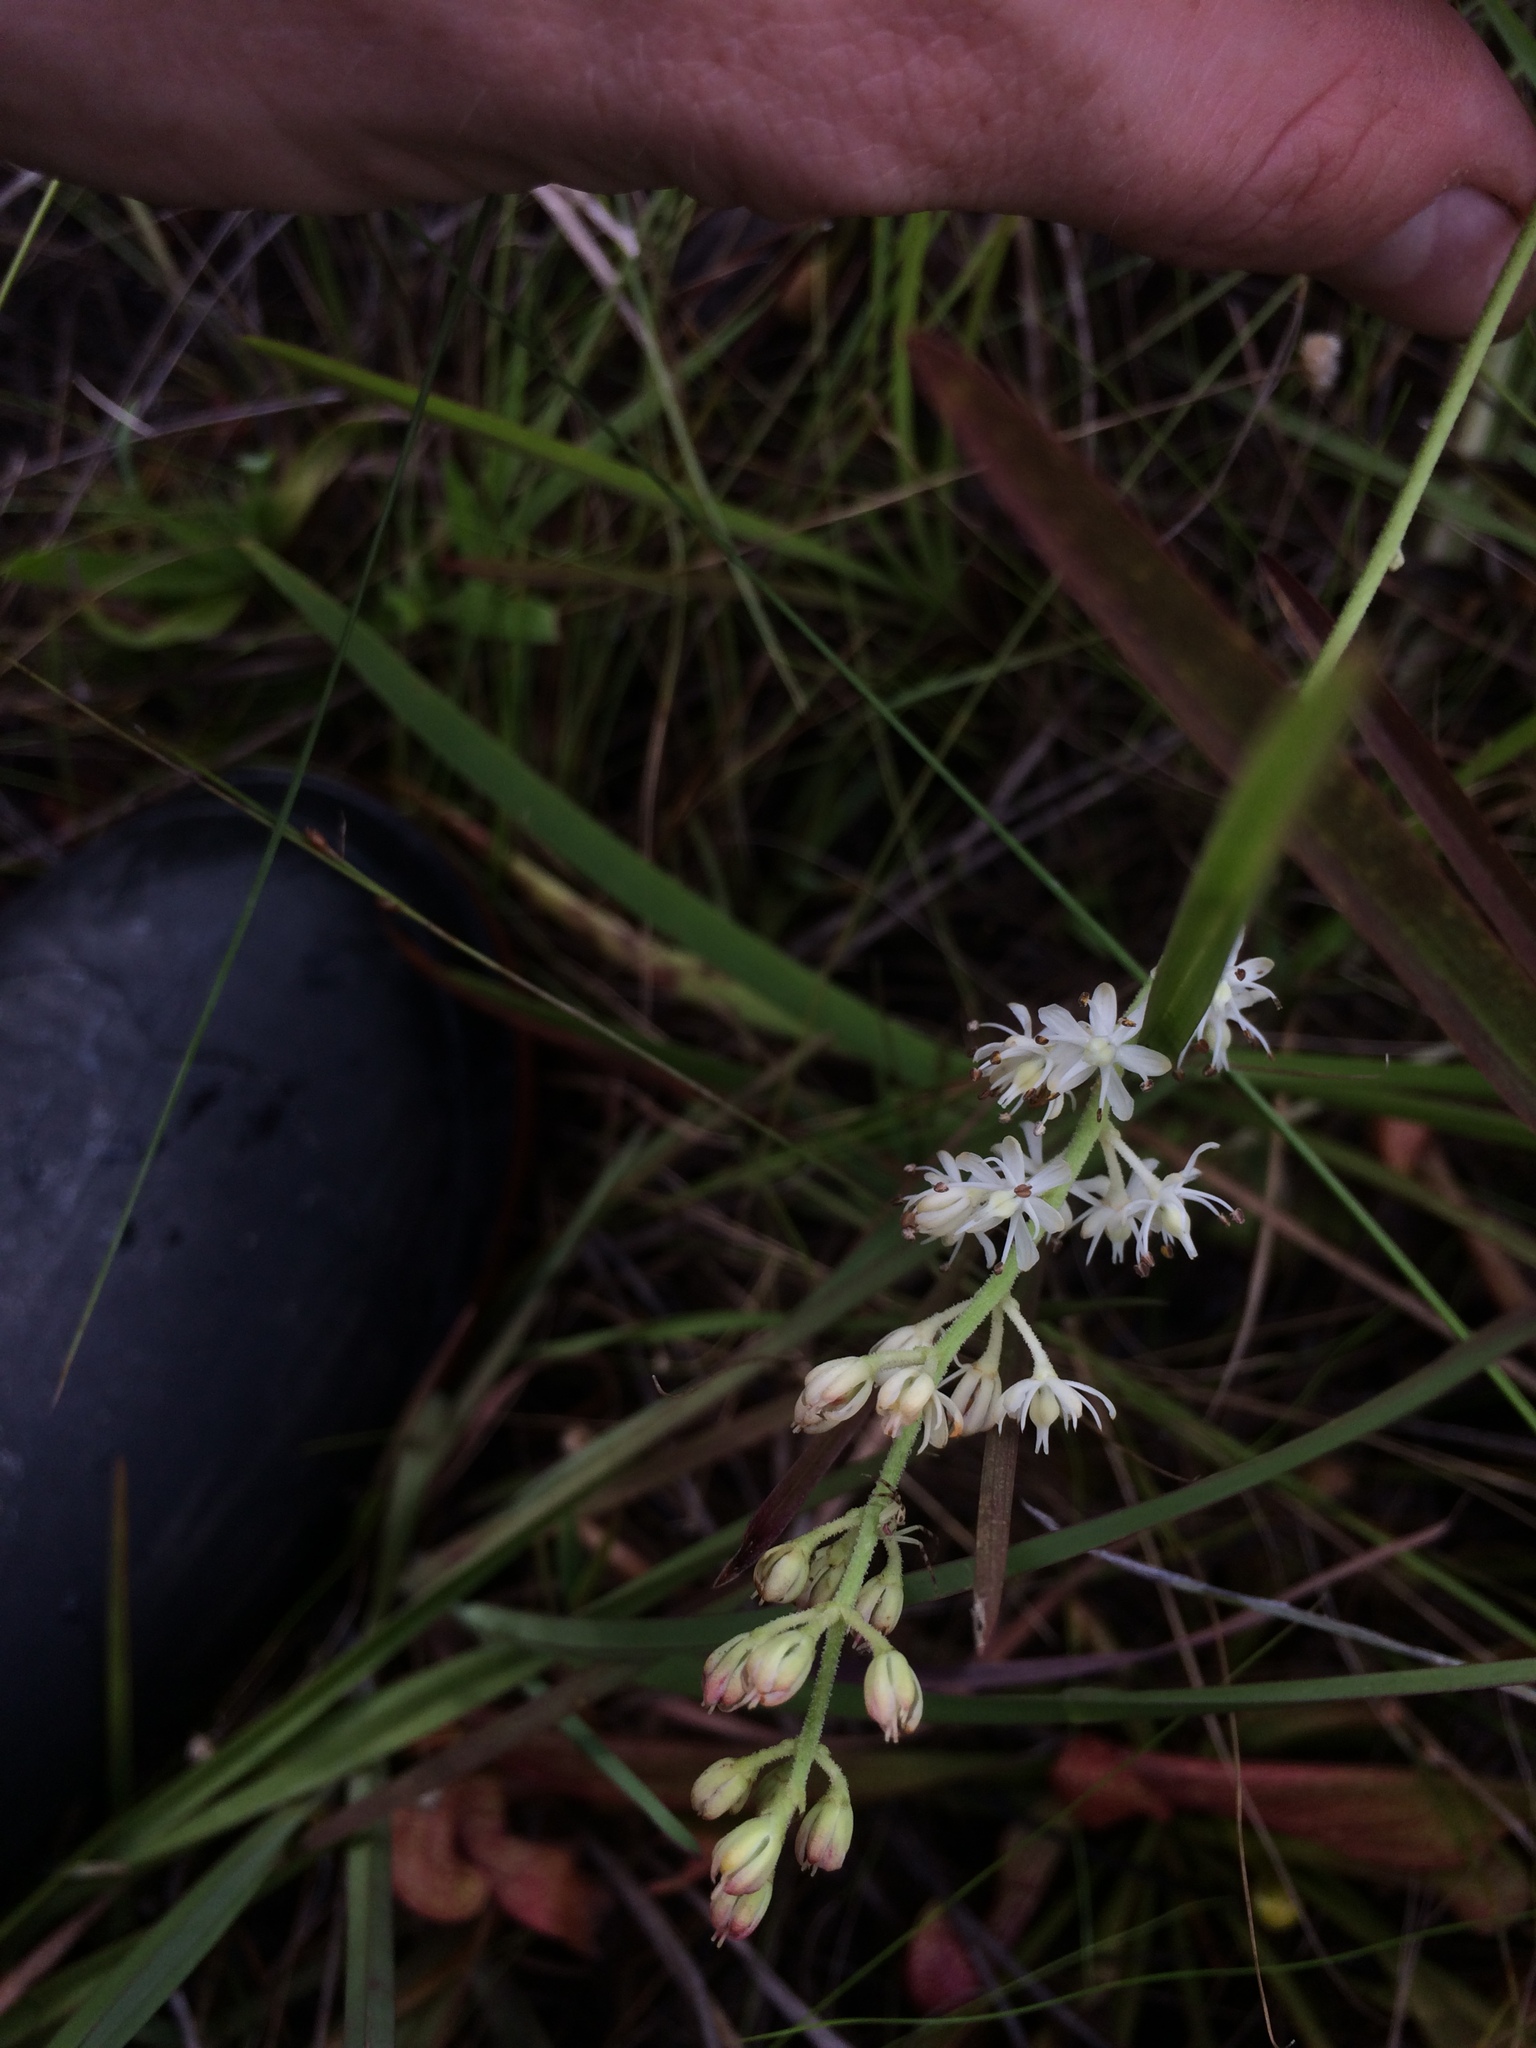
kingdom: Plantae
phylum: Tracheophyta
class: Liliopsida
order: Alismatales
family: Tofieldiaceae
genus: Triantha
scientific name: Triantha racemosa
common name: Coastal false asphodel
